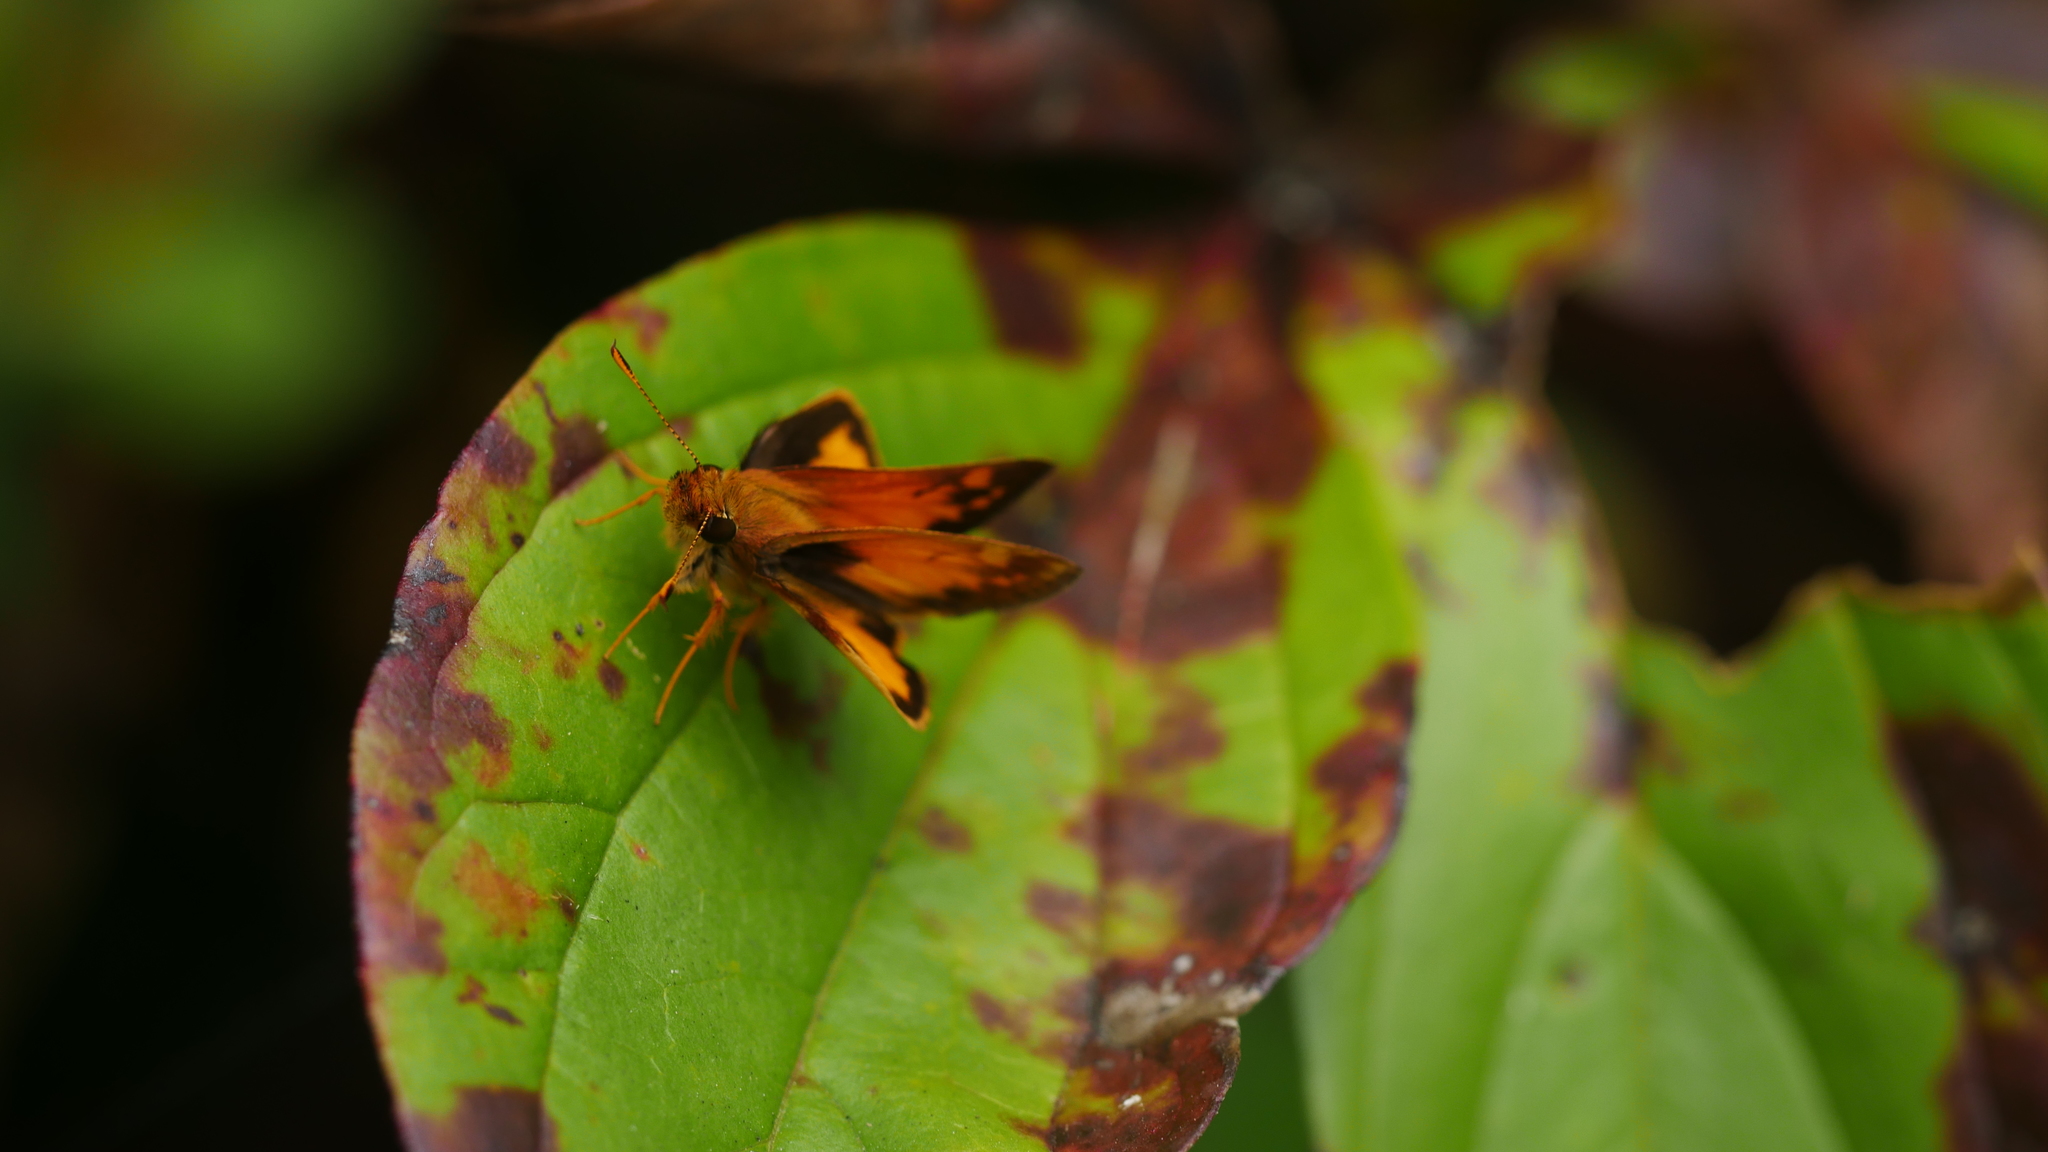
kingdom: Animalia
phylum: Arthropoda
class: Insecta
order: Lepidoptera
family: Hesperiidae
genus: Lon
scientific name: Lon zabulon
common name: Zabulon skipper
